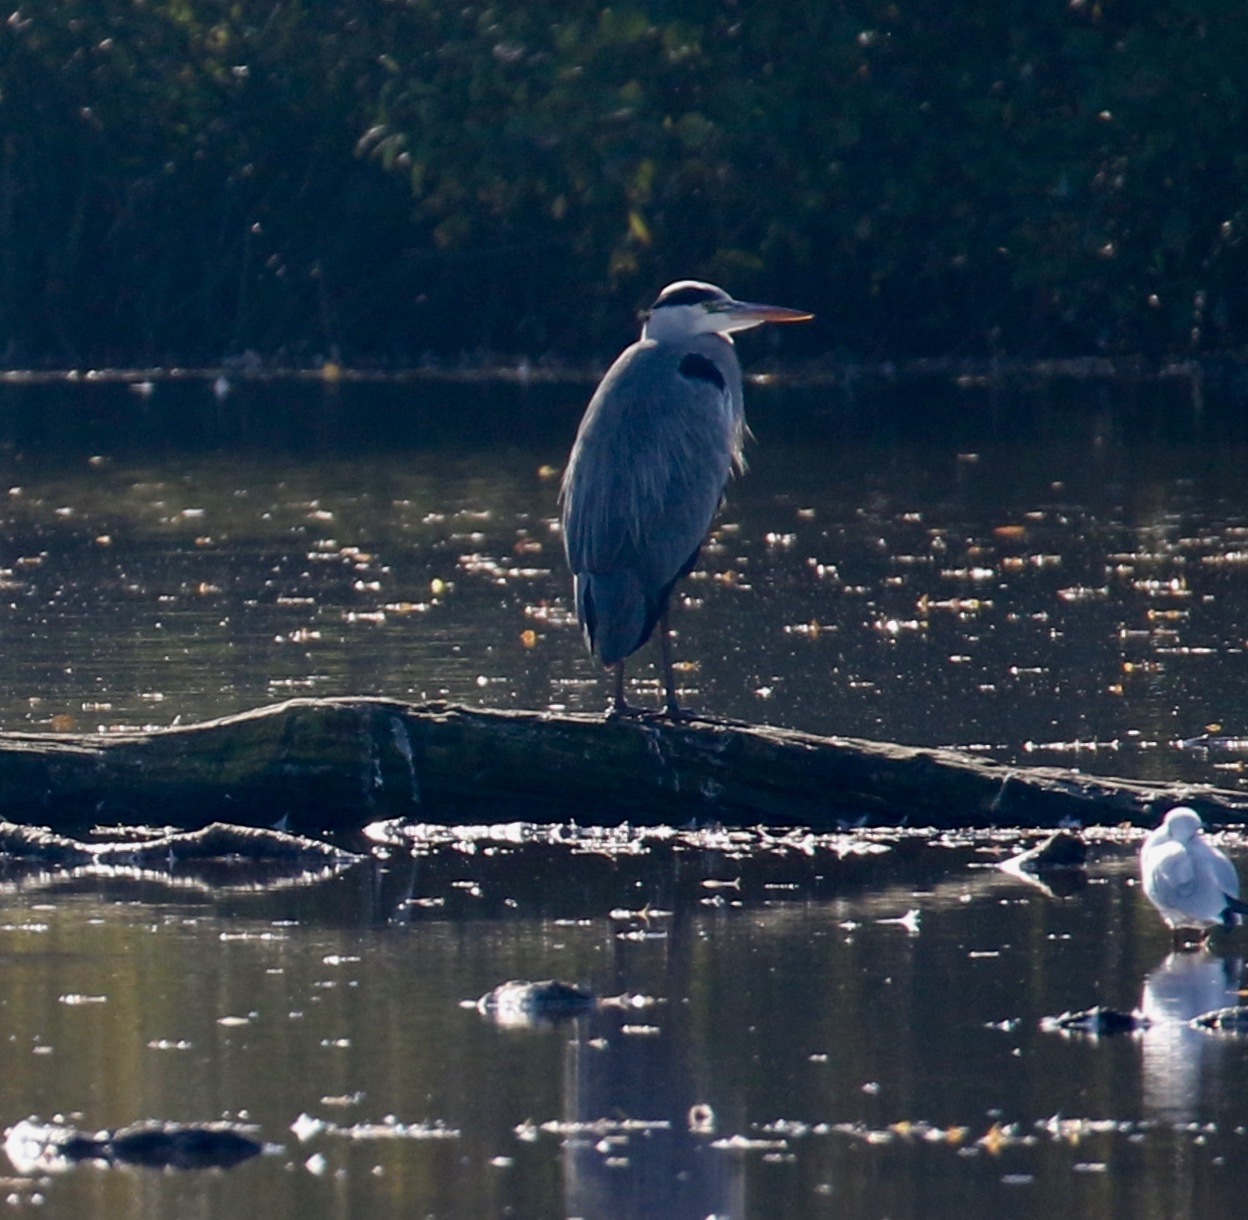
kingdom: Animalia
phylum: Chordata
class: Aves
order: Pelecaniformes
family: Ardeidae
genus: Ardea
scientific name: Ardea cinerea
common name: Grey heron
